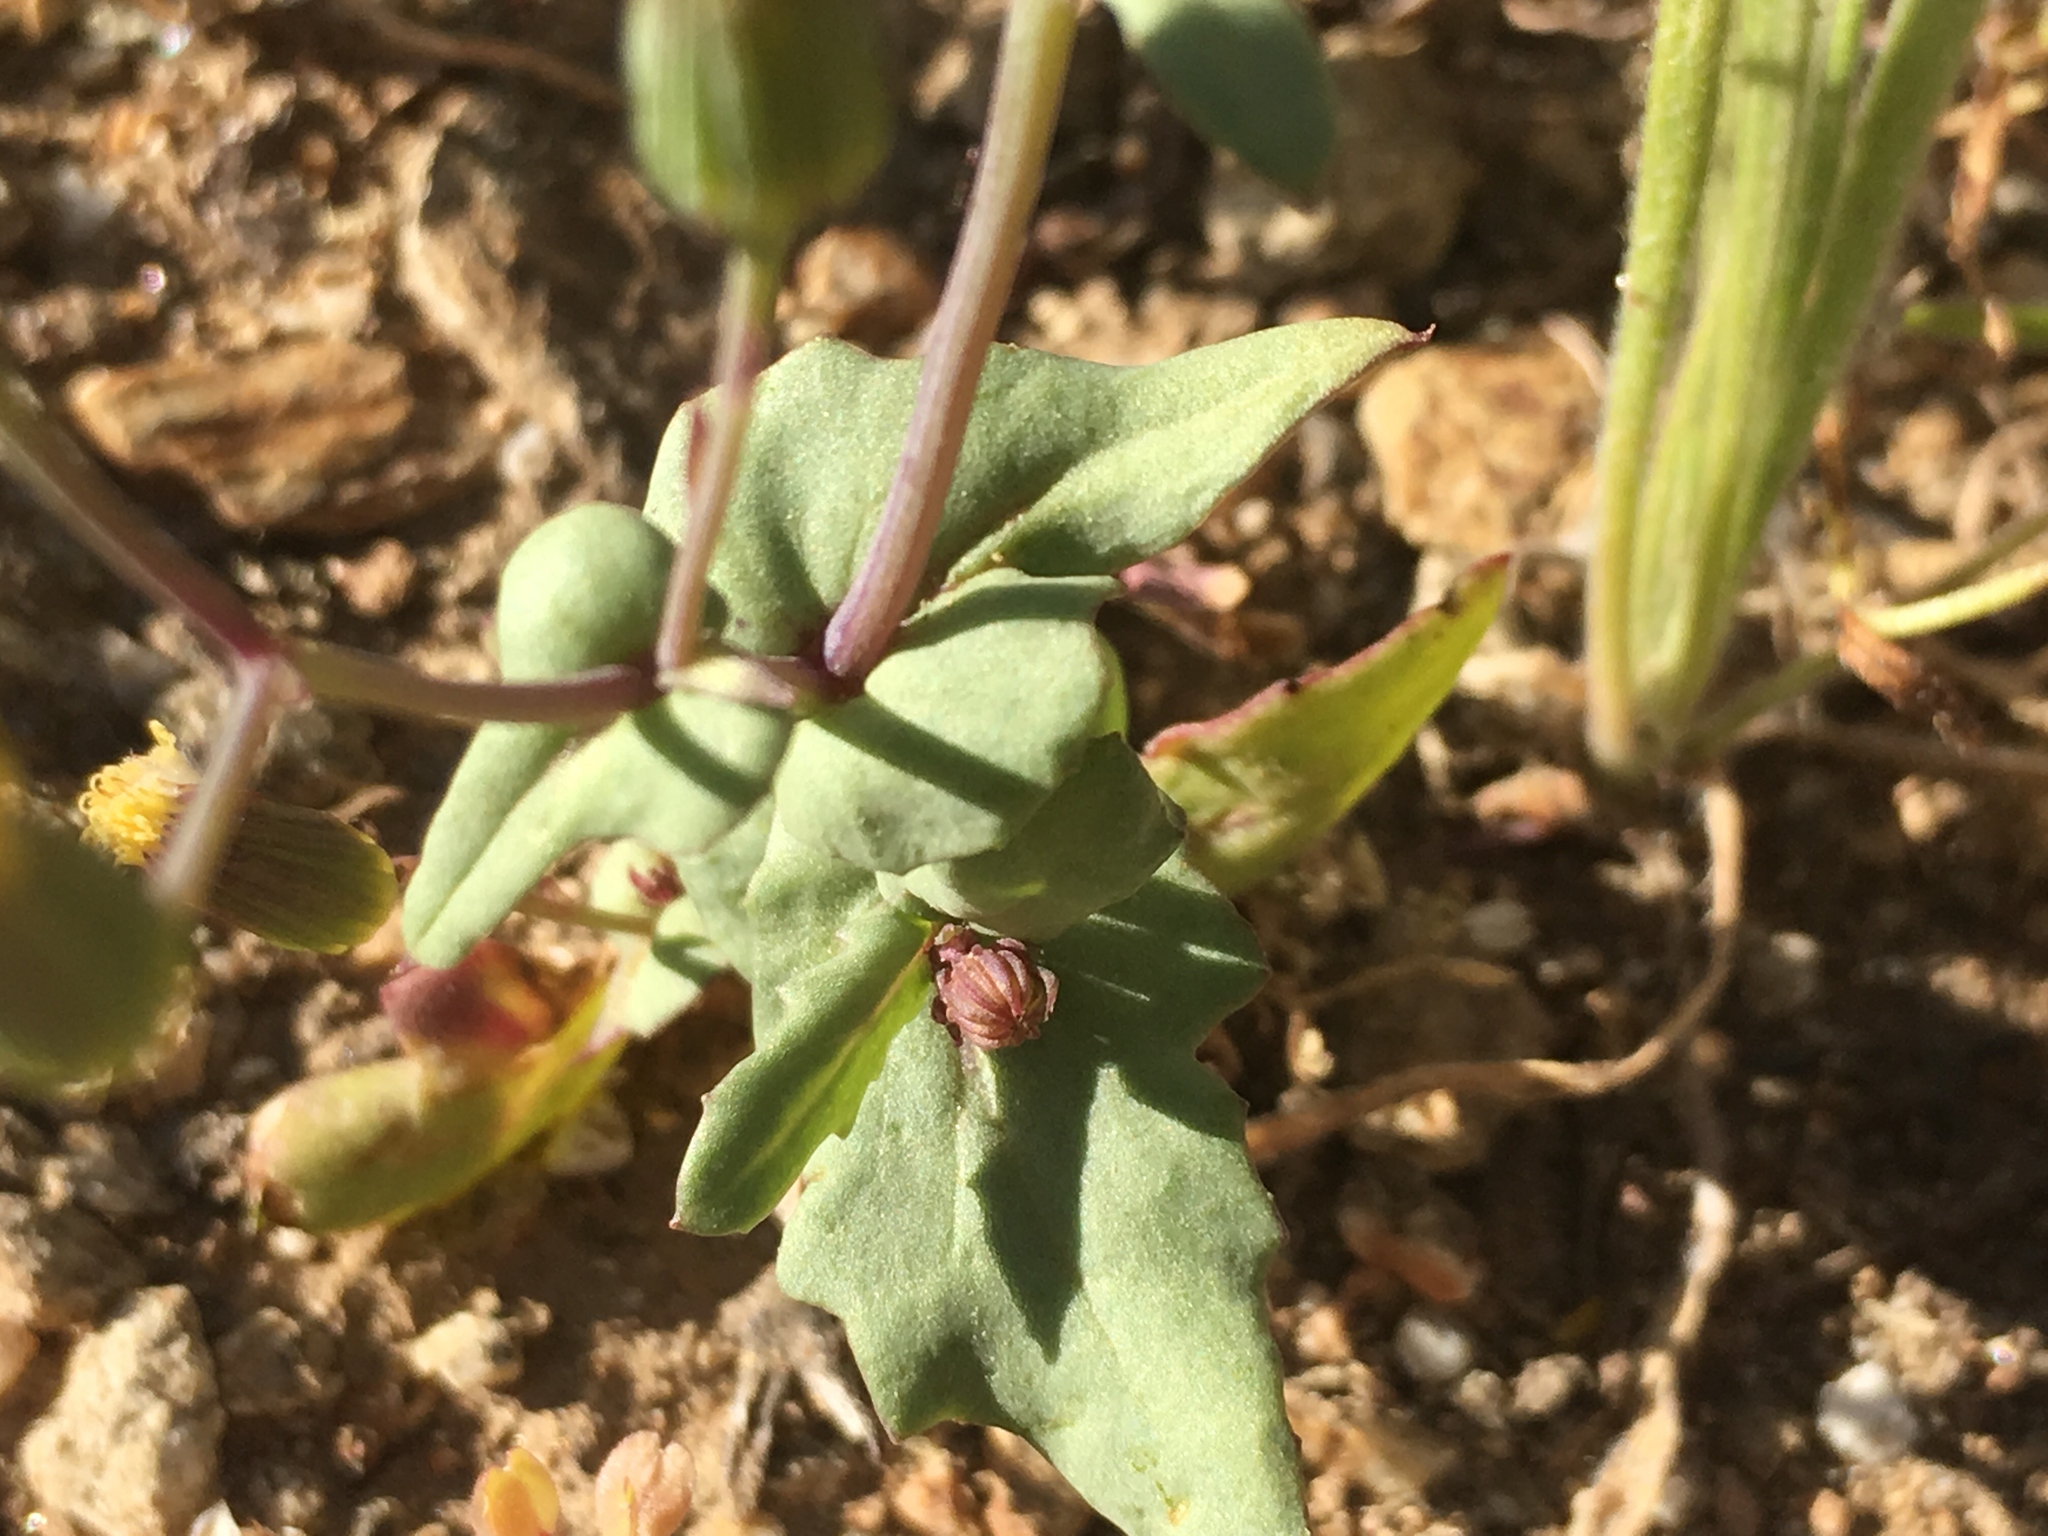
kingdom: Plantae
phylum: Tracheophyta
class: Magnoliopsida
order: Asterales
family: Asteraceae
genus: Senecio
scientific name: Senecio mohavensis
